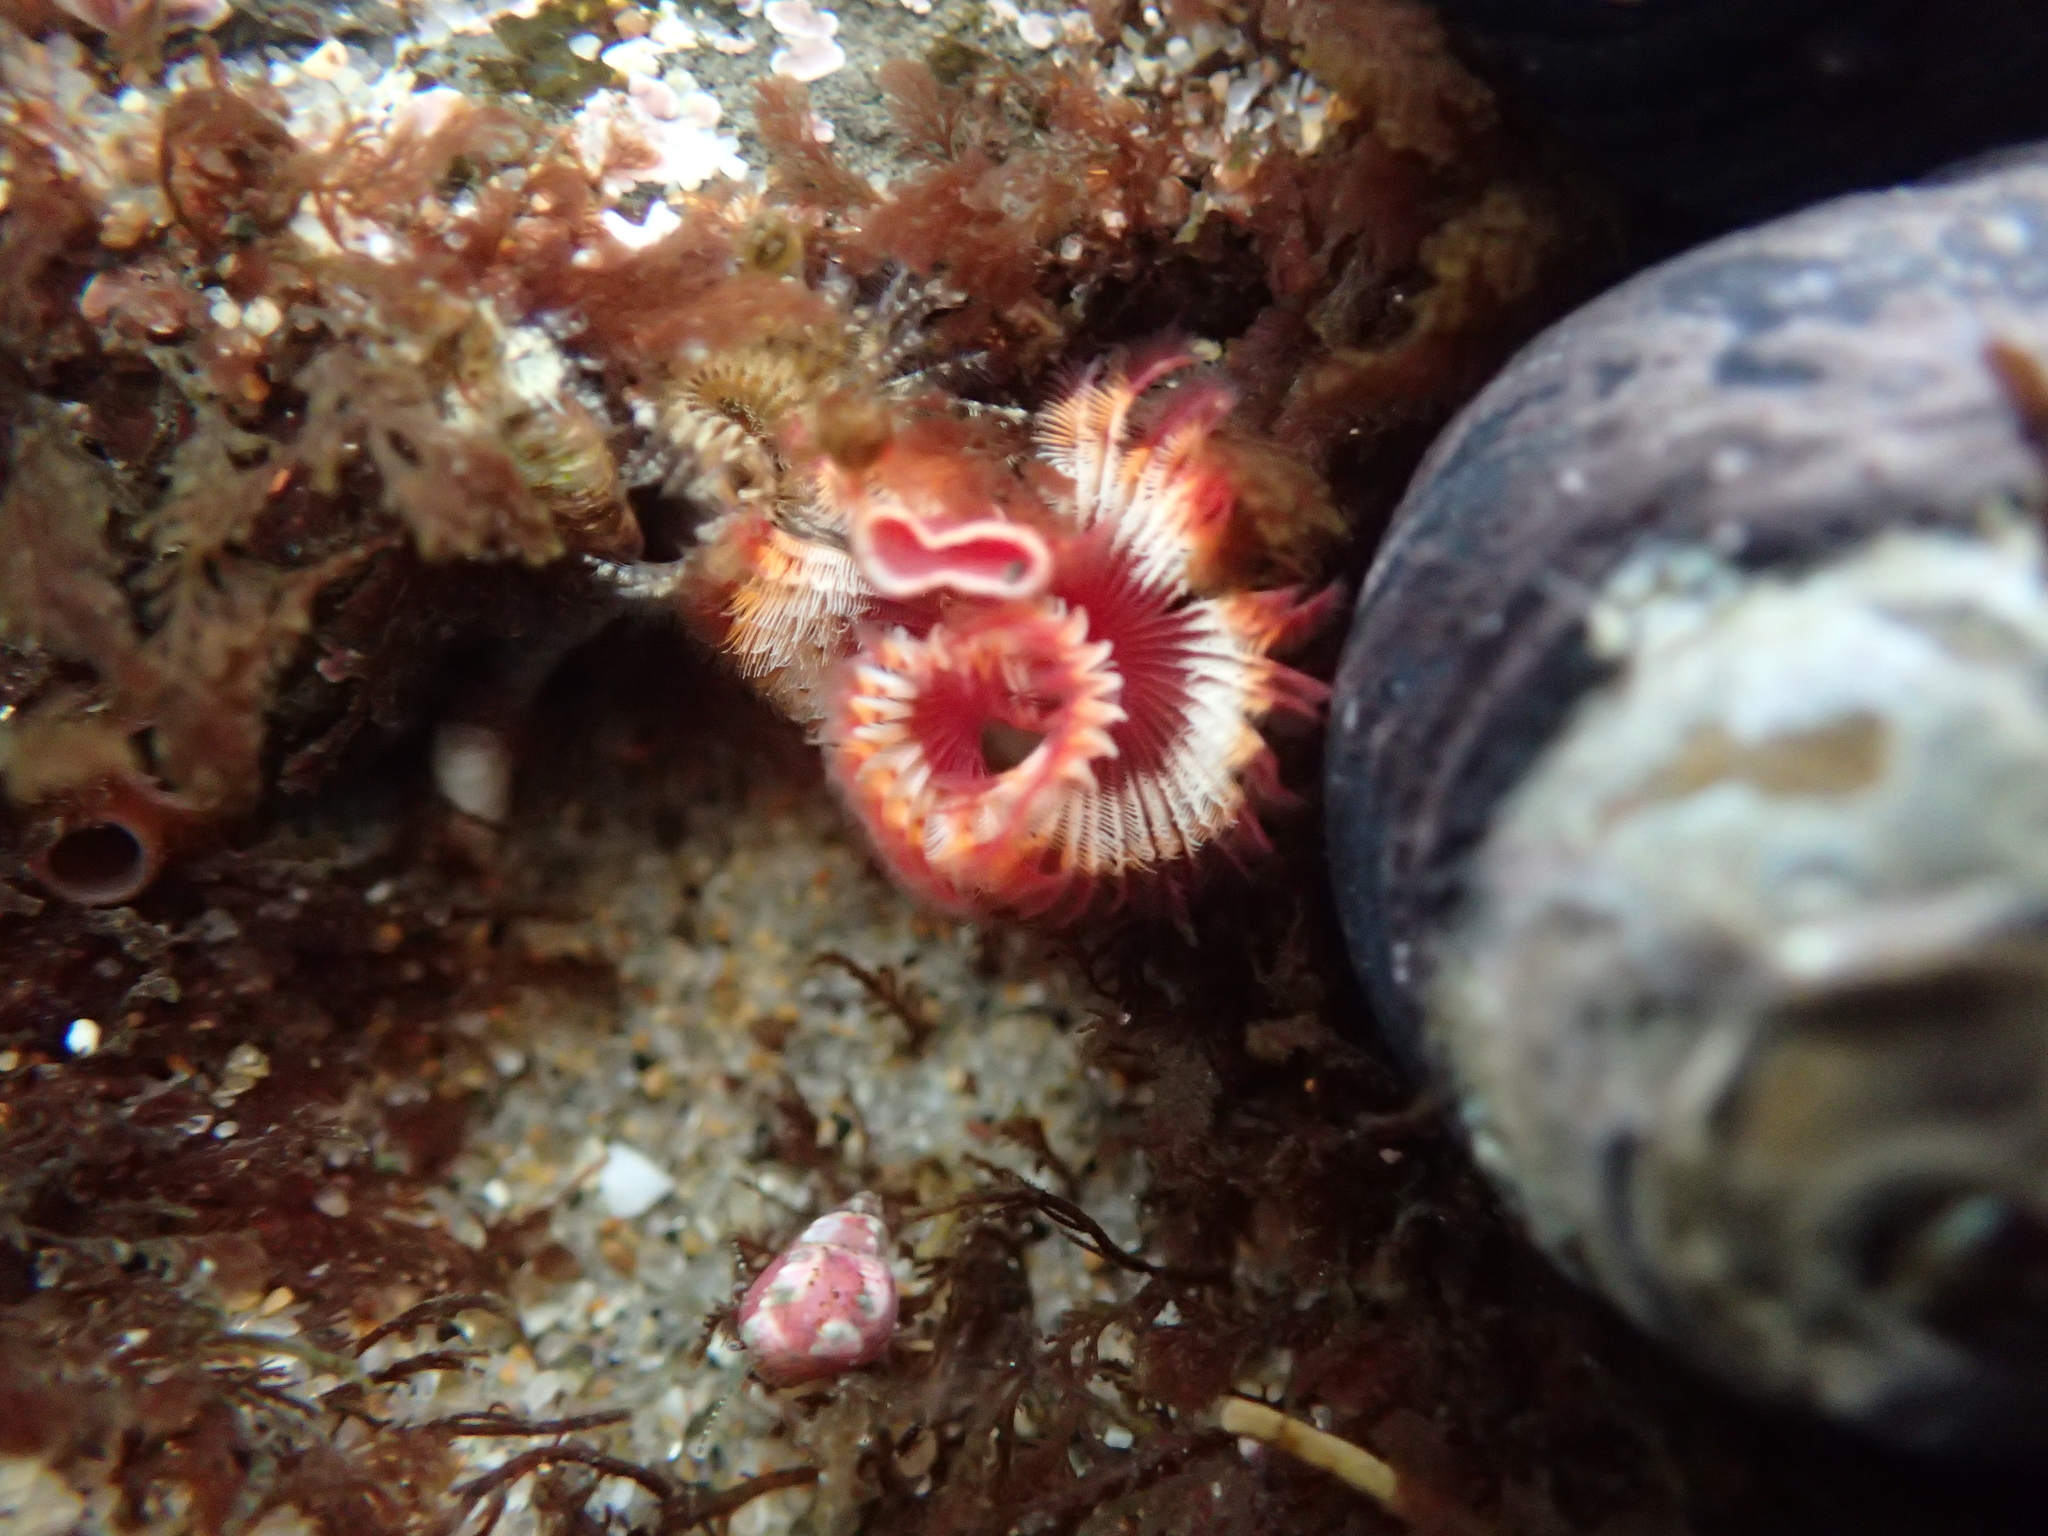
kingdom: Animalia
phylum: Annelida
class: Polychaeta
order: Sabellida
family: Serpulidae
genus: Serpula
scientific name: Serpula columbiana
